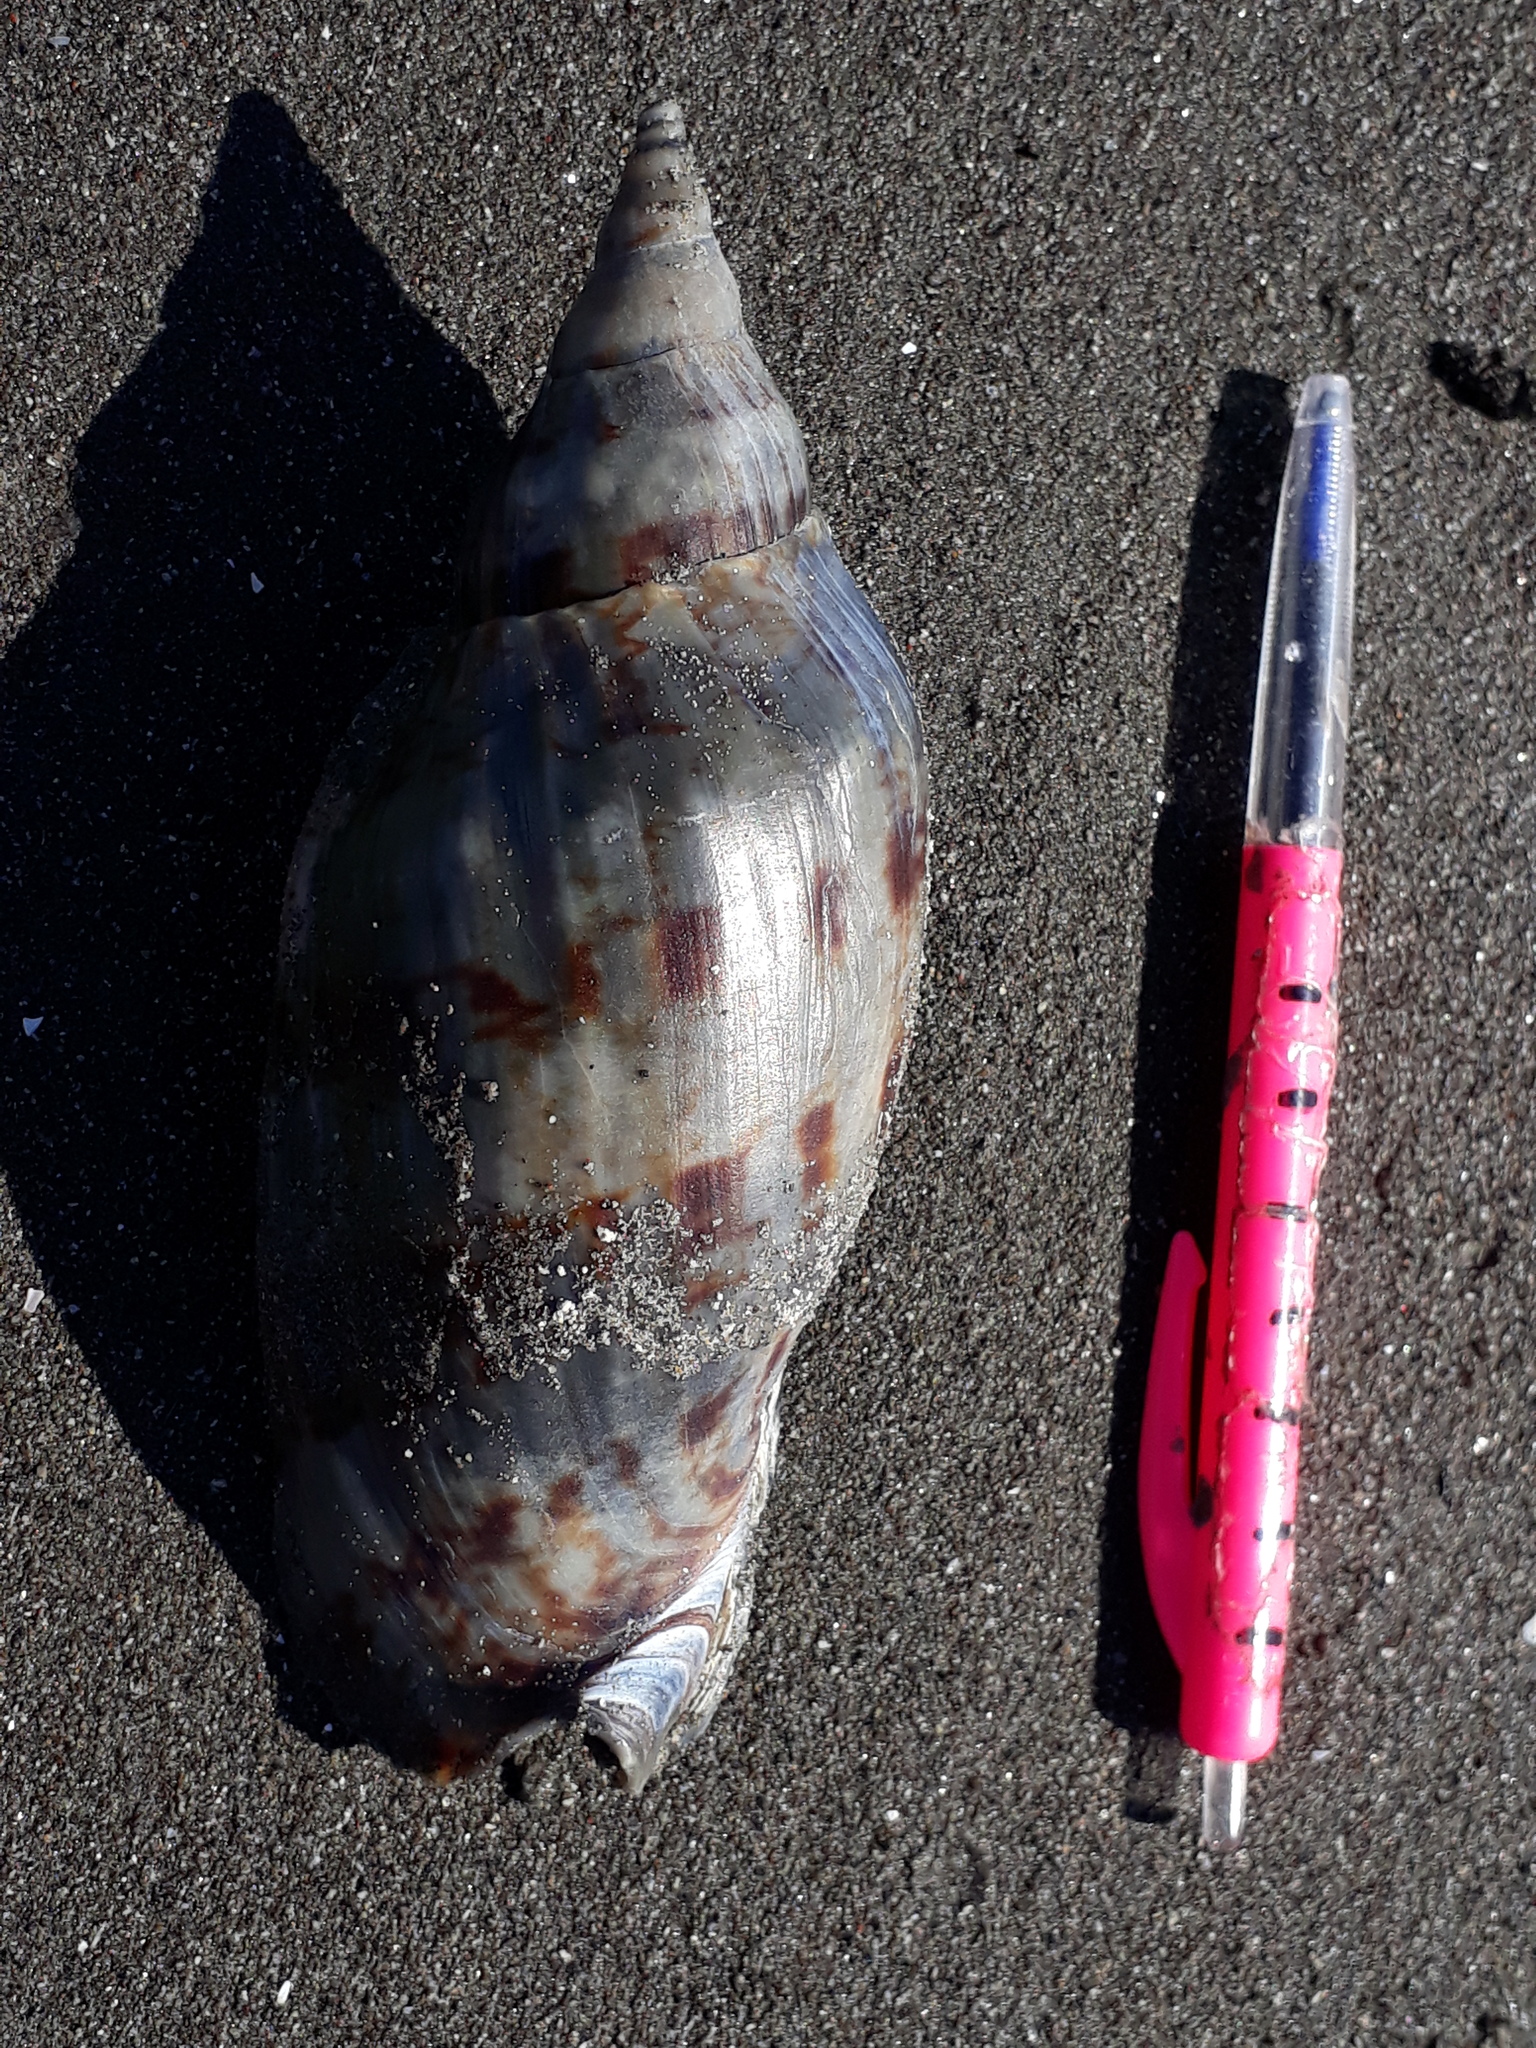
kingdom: Animalia
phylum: Mollusca
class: Gastropoda
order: Neogastropoda
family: Volutidae
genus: Alcithoe
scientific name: Alcithoe arabica
